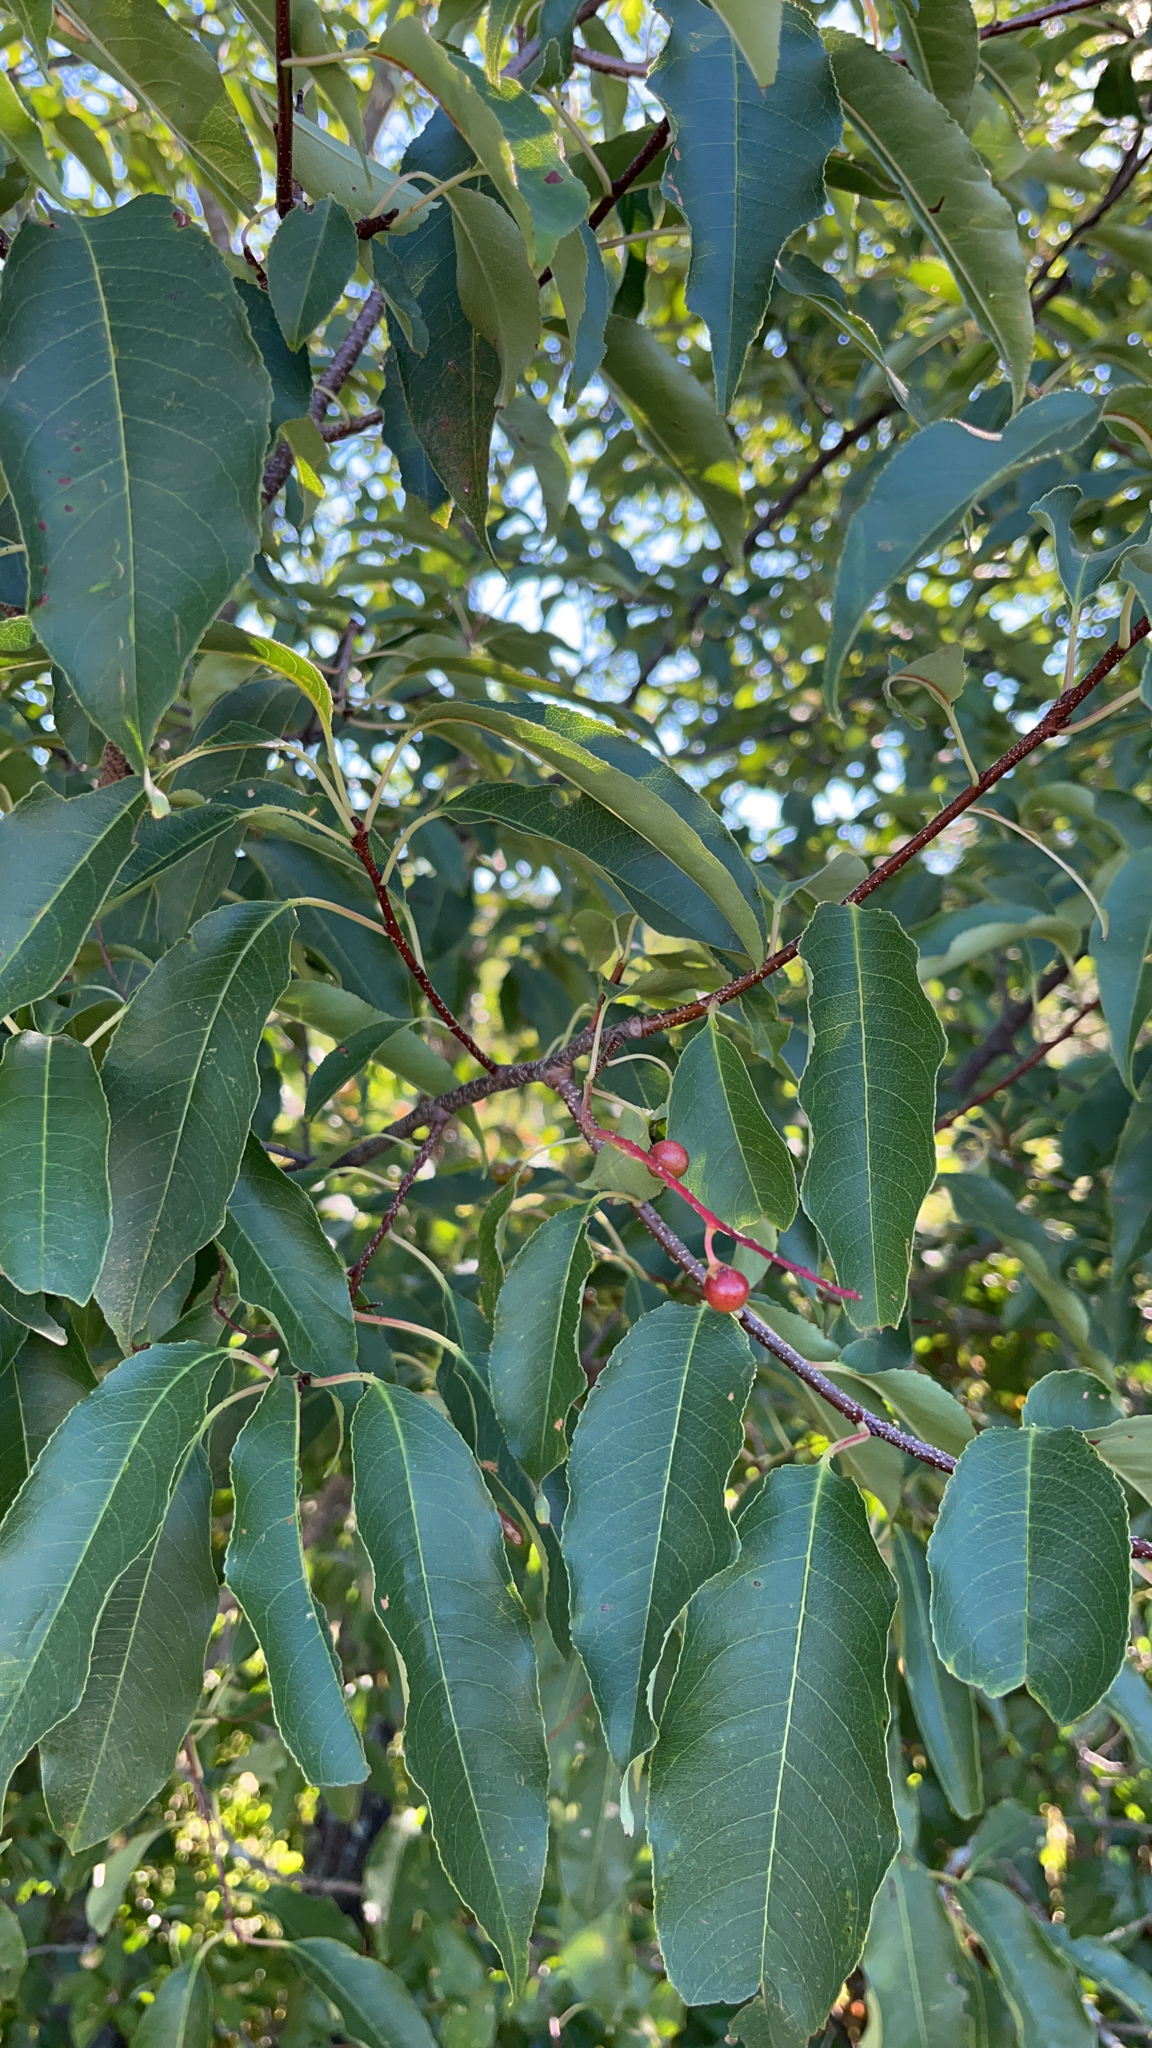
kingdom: Plantae
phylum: Tracheophyta
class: Magnoliopsida
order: Rosales
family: Rosaceae
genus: Prunus
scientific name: Prunus serotina
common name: Black cherry
